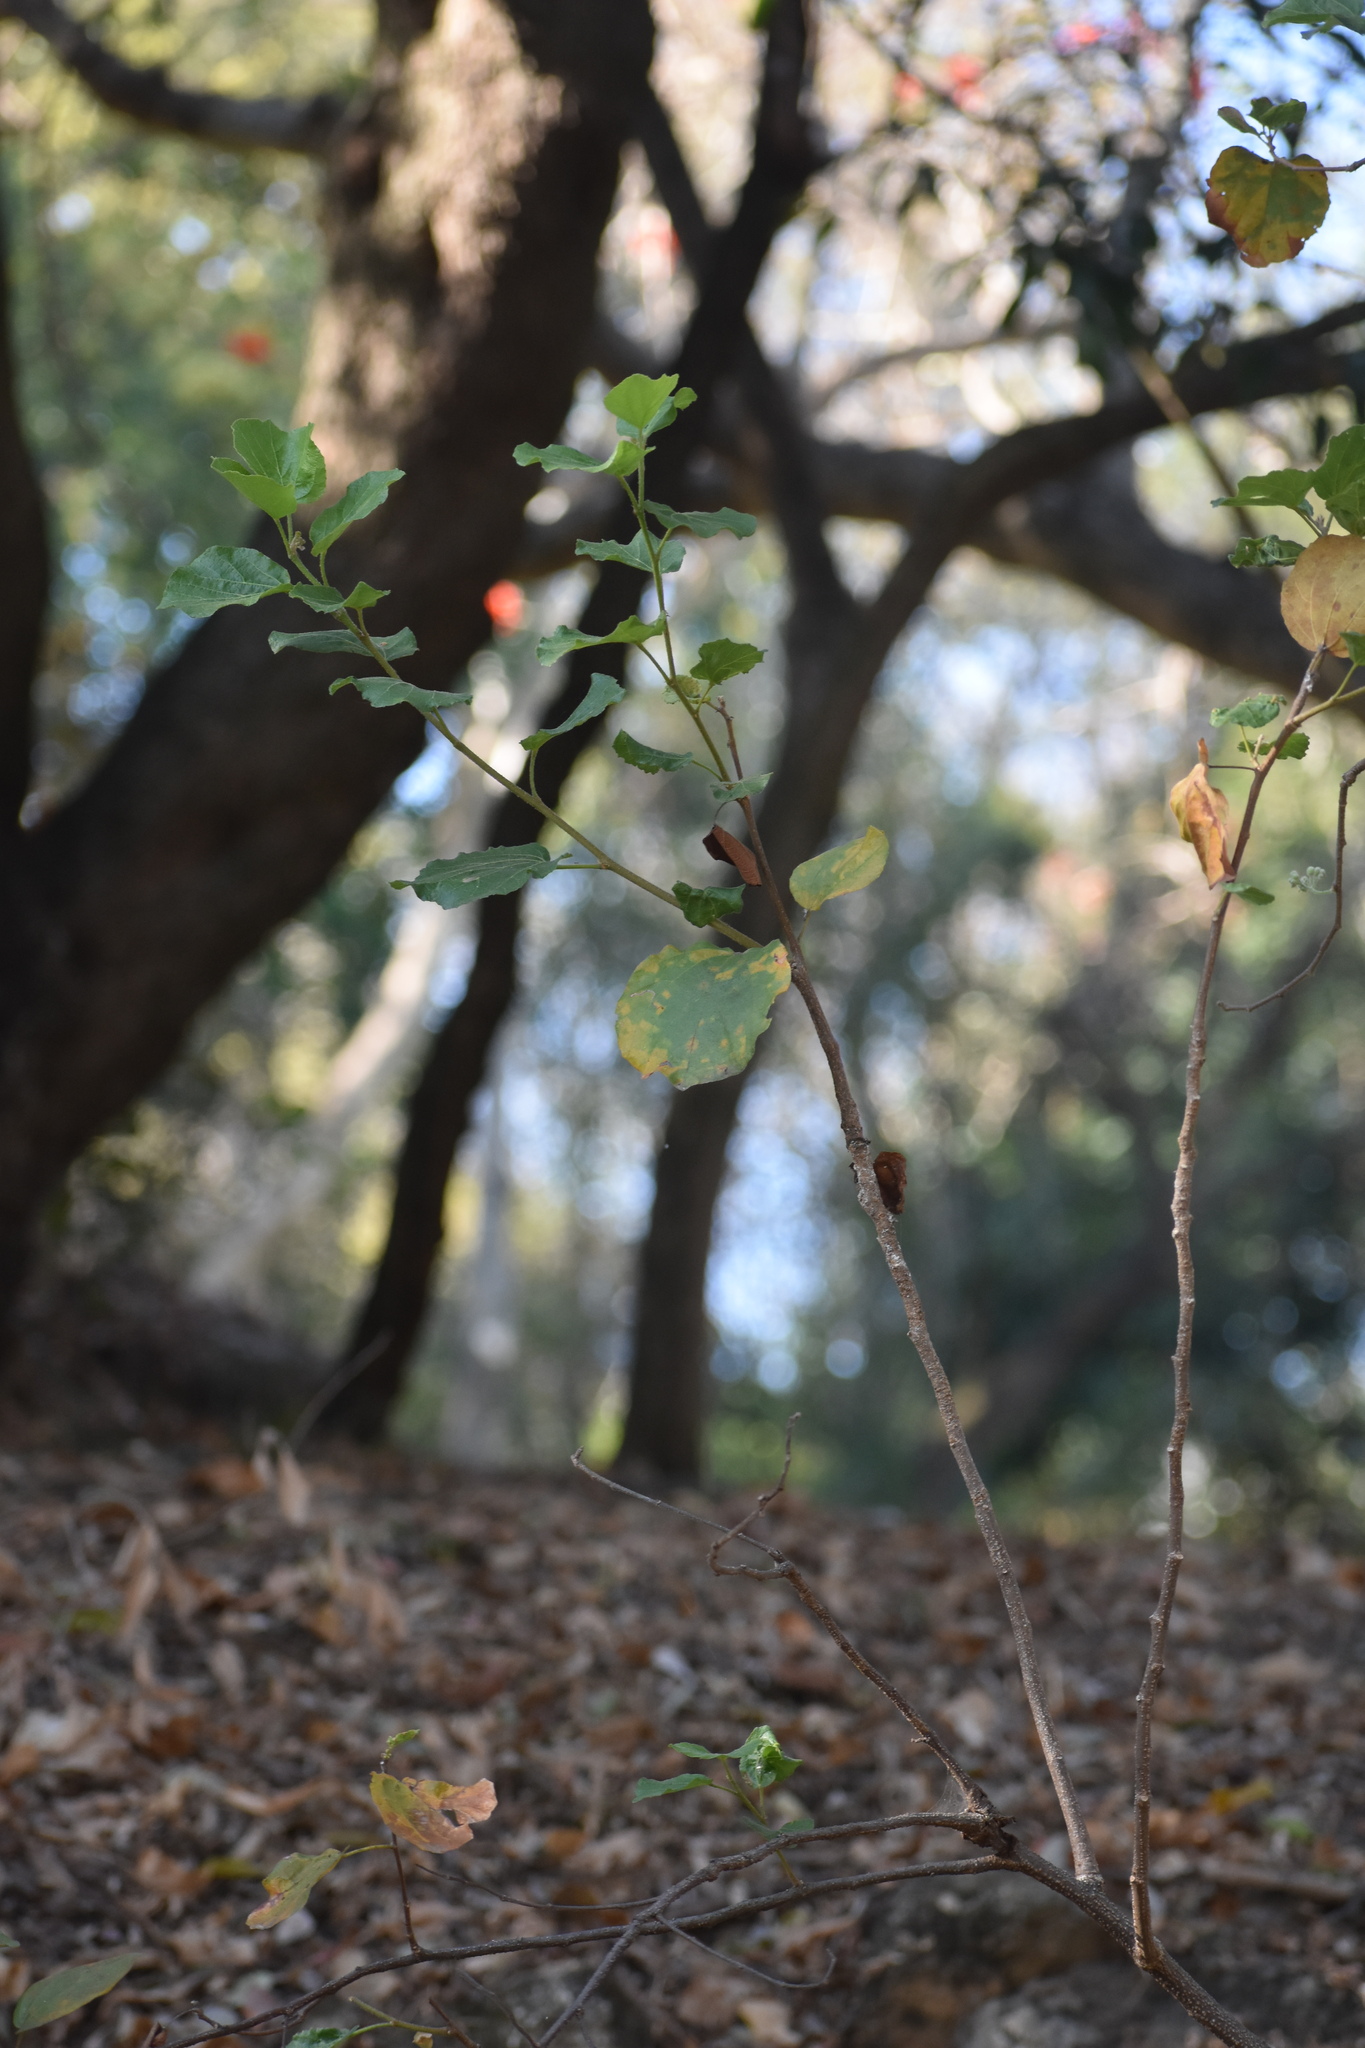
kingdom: Plantae
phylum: Tracheophyta
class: Magnoliopsida
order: Malvales
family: Malvaceae
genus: Dombeya
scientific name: Dombeya rotundifolia
